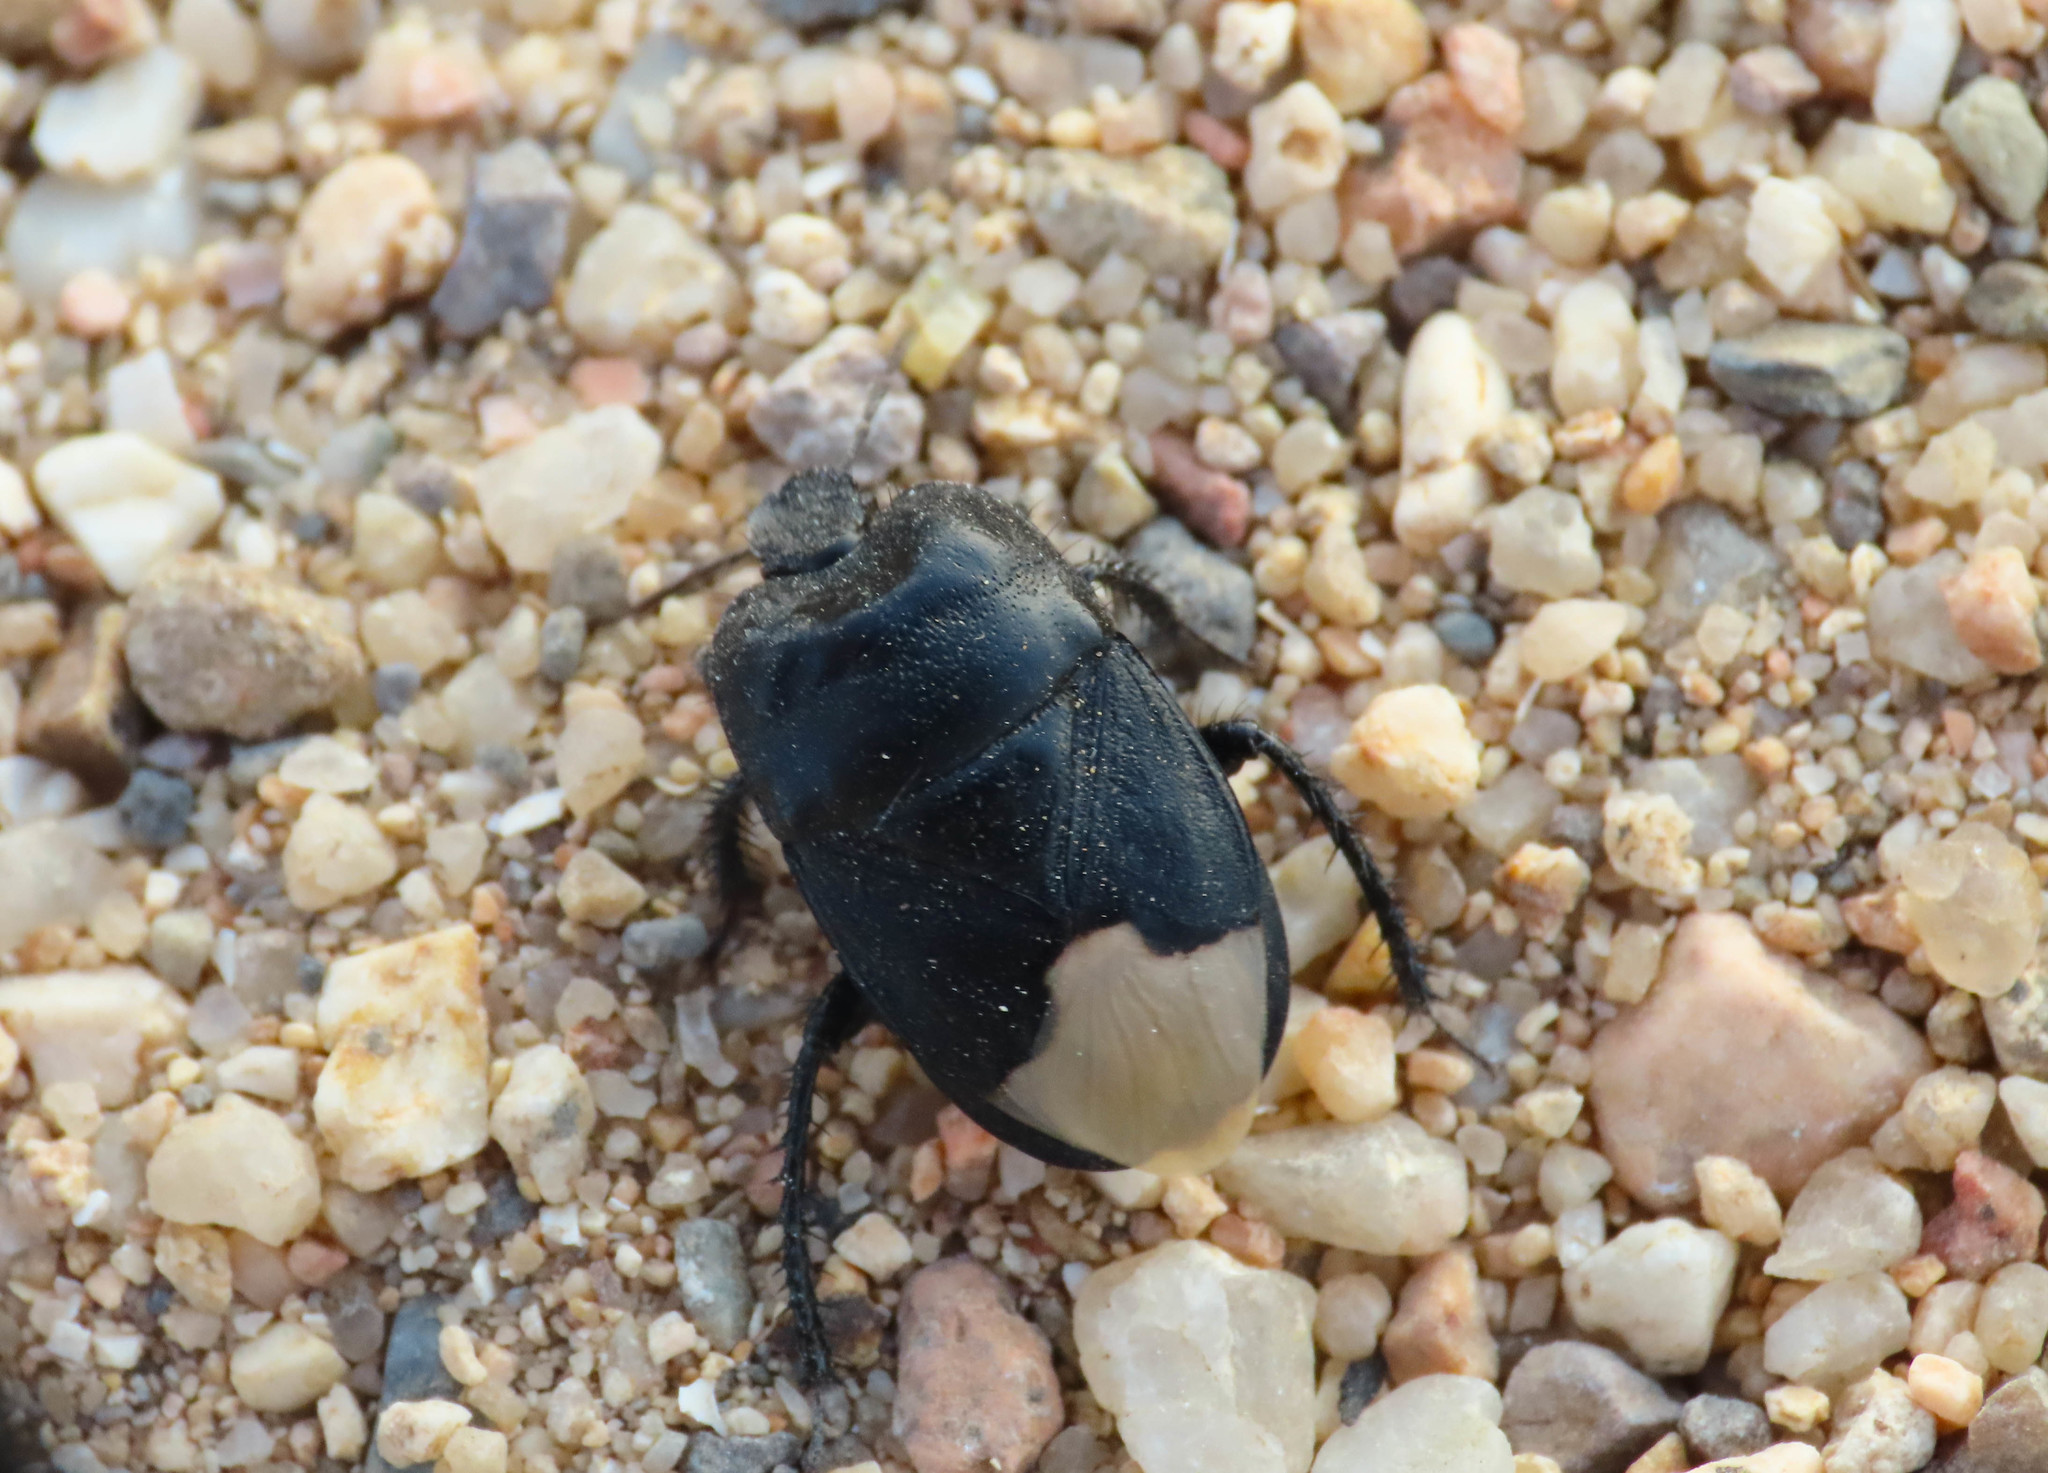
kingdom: Animalia
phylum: Arthropoda
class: Insecta
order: Hemiptera
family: Cydnidae
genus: Cydnus
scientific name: Cydnus aterrimus
